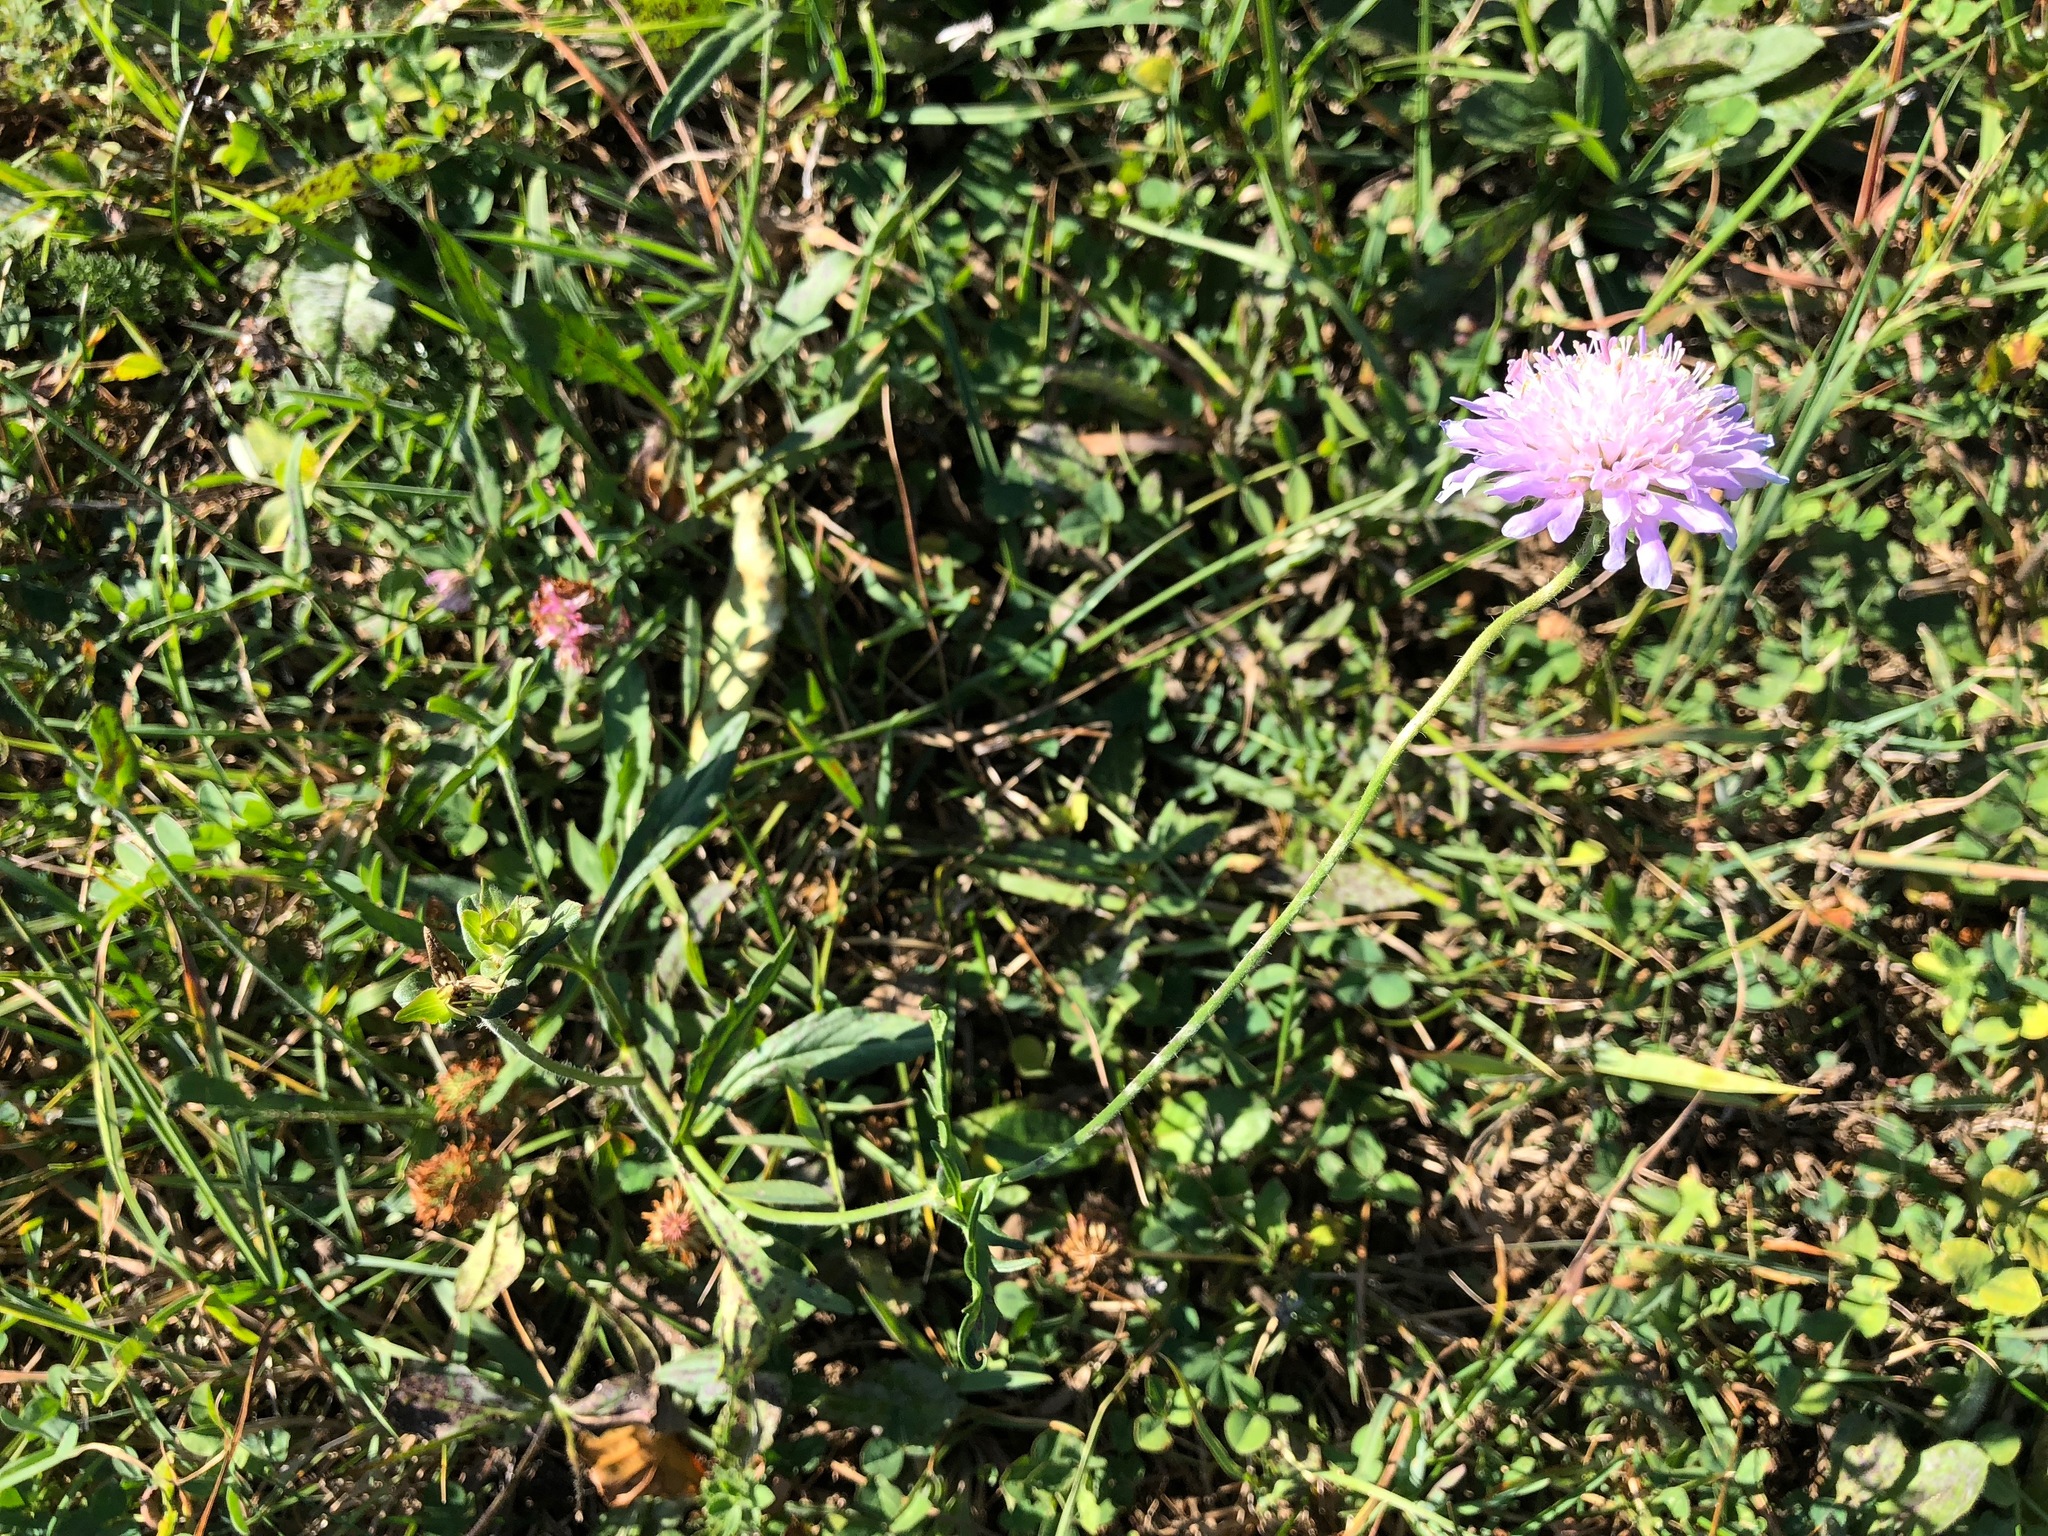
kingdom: Plantae
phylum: Tracheophyta
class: Magnoliopsida
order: Dipsacales
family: Caprifoliaceae
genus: Knautia
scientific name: Knautia arvensis
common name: Field scabiosa
